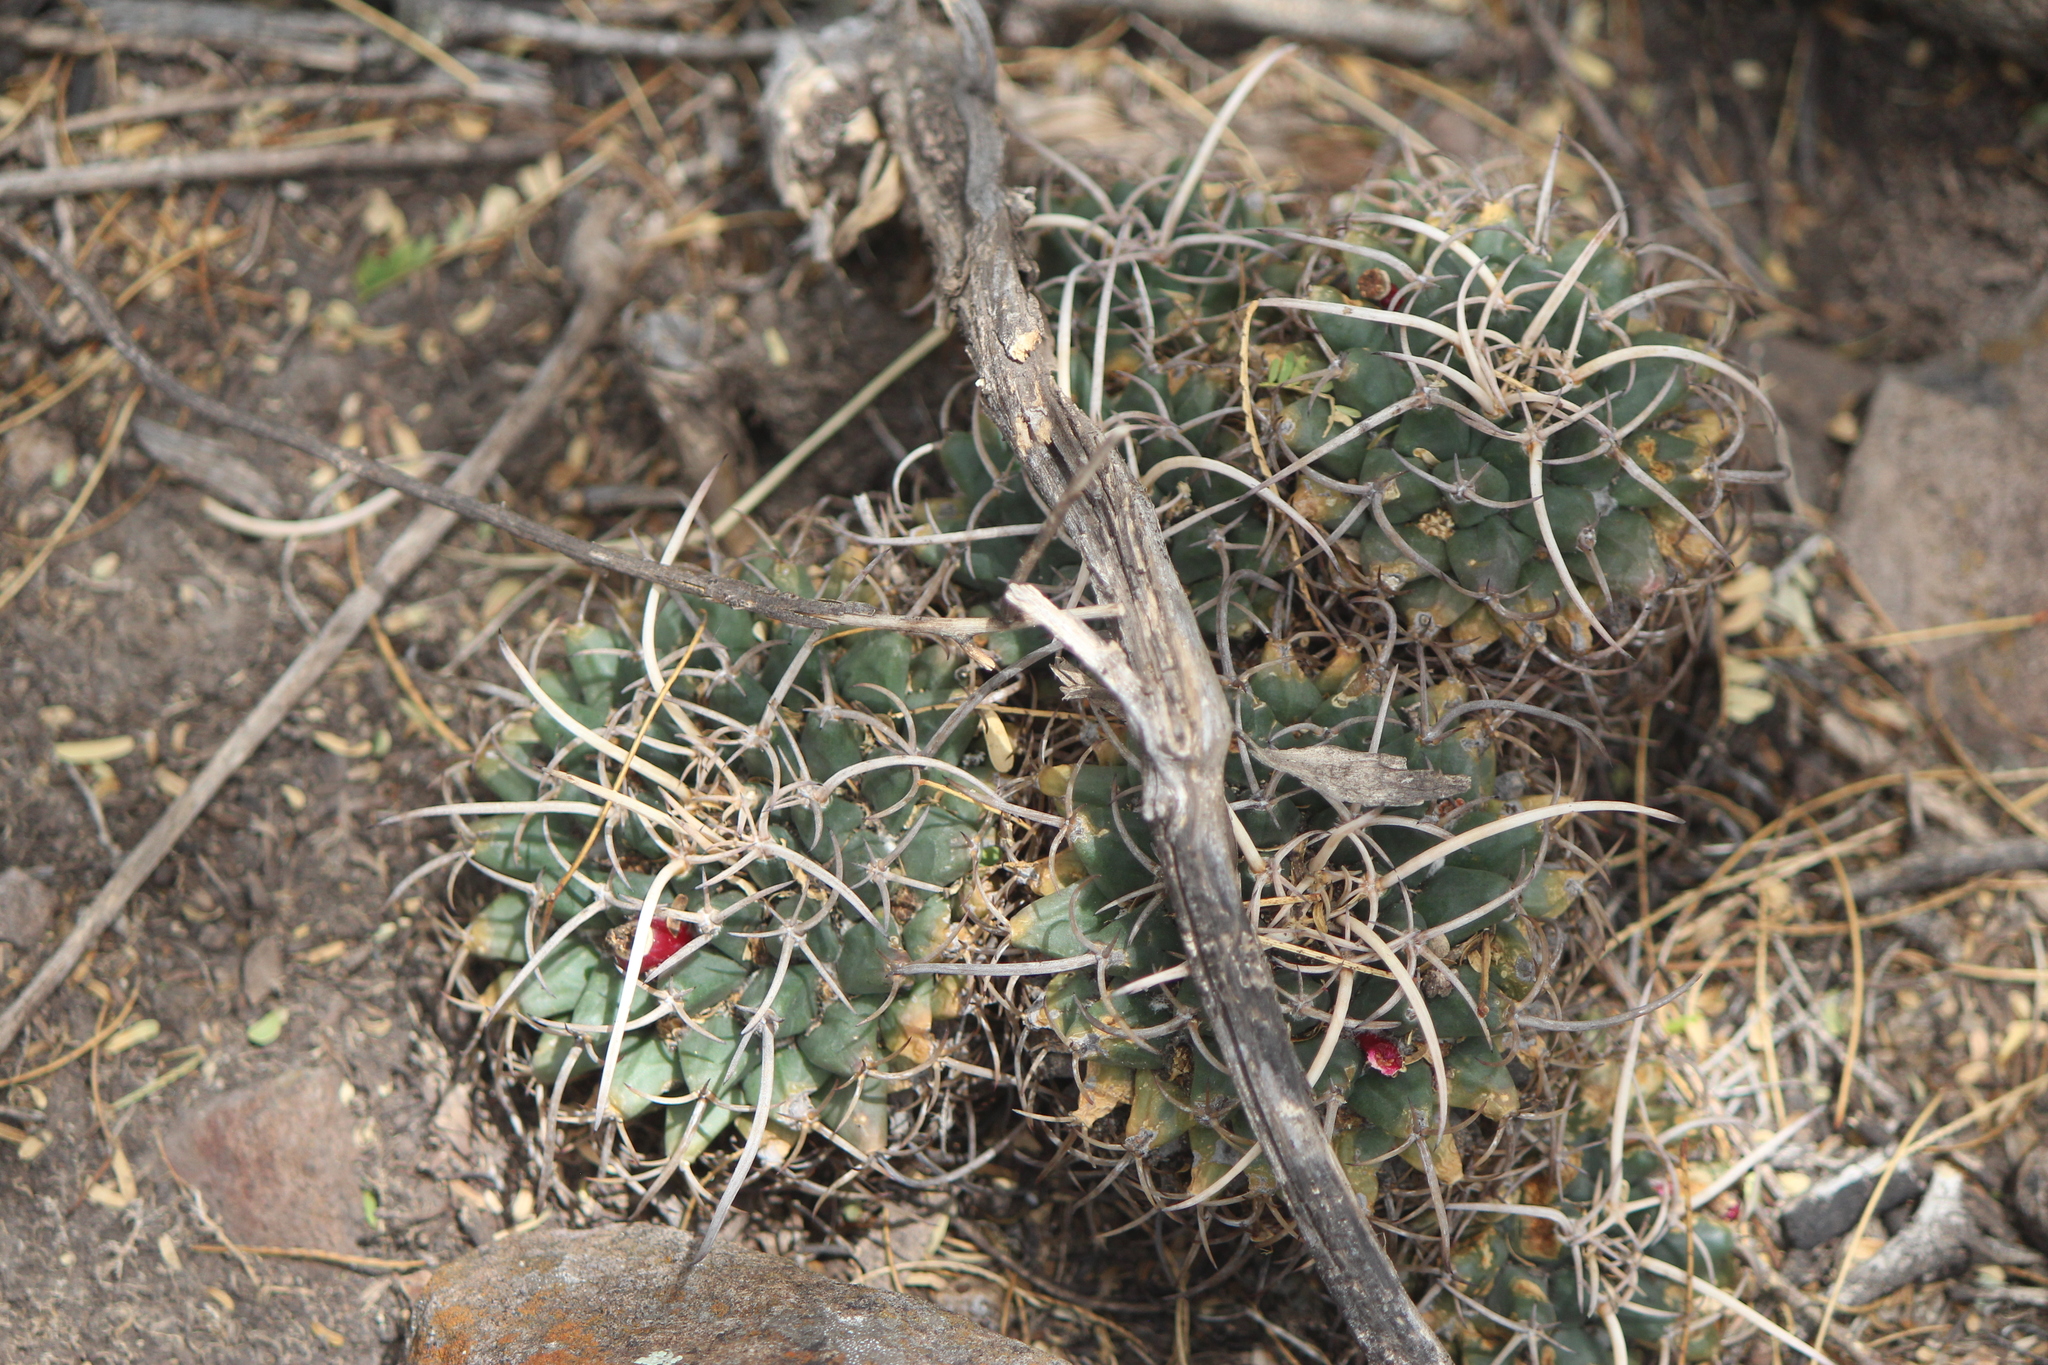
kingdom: Plantae
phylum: Tracheophyta
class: Magnoliopsida
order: Caryophyllales
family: Cactaceae
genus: Mammillaria
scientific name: Mammillaria magnimamma
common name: Mexican pincushion
